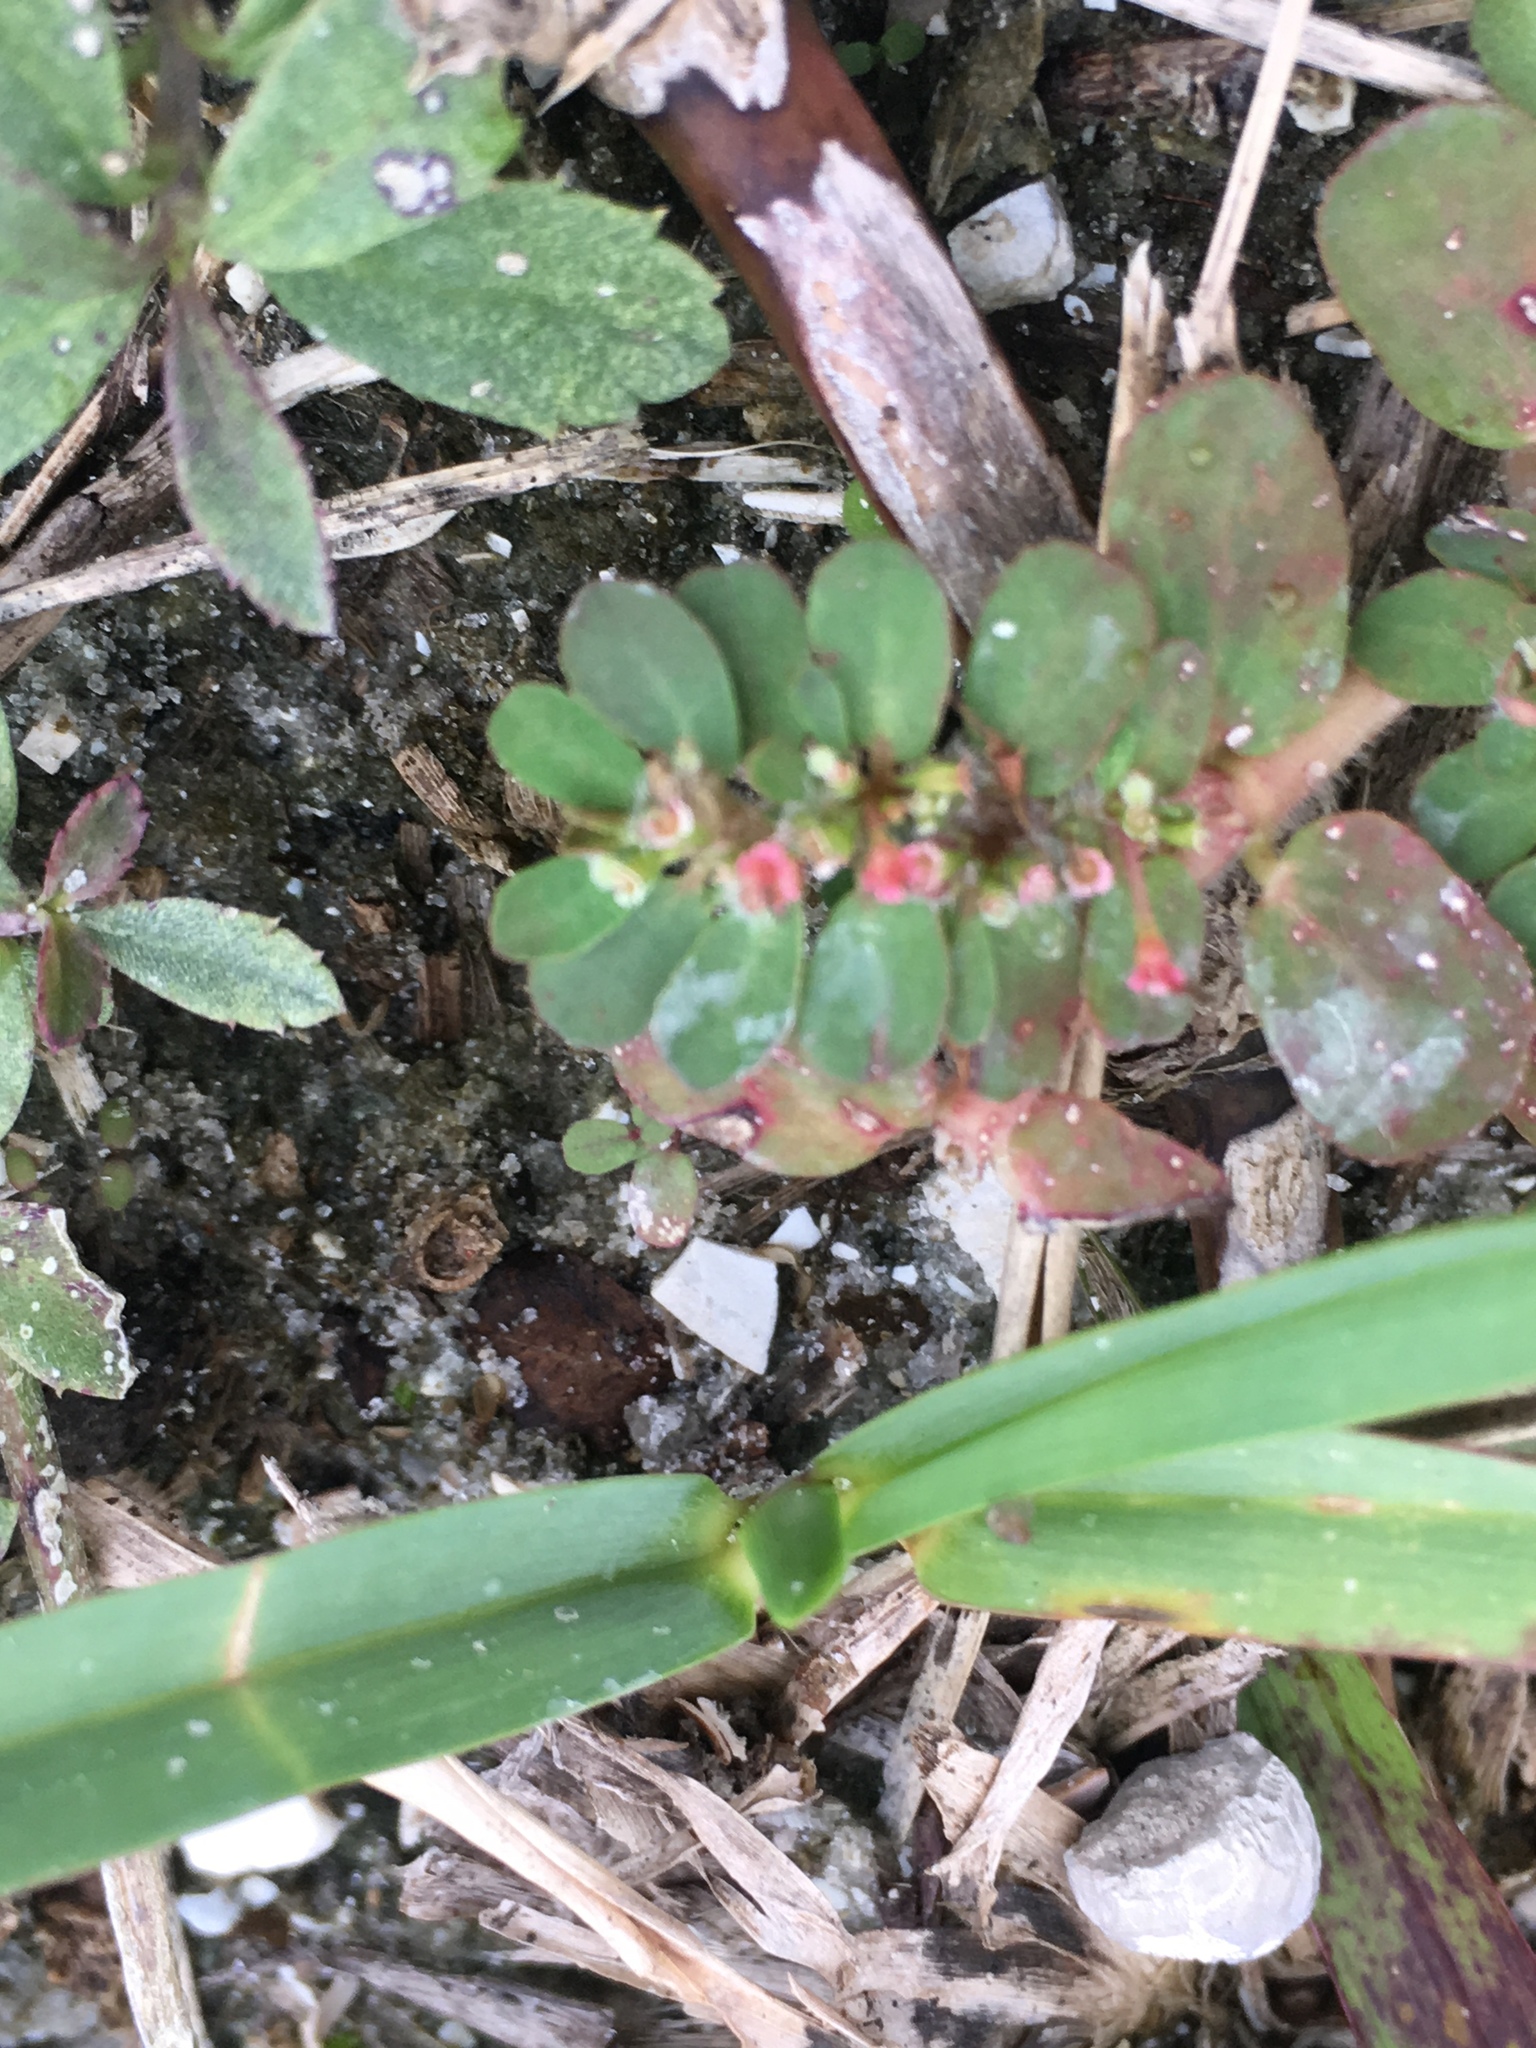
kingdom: Plantae
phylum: Tracheophyta
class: Magnoliopsida
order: Malpighiales
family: Euphorbiaceae
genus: Euphorbia
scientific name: Euphorbia mendezii
